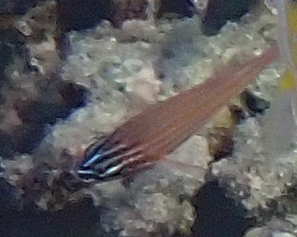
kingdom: Animalia
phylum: Chordata
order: Perciformes
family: Apogonidae
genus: Ostorhinchus
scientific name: Ostorhinchus cyanosoma
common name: Yellow-striped cardinalfish
